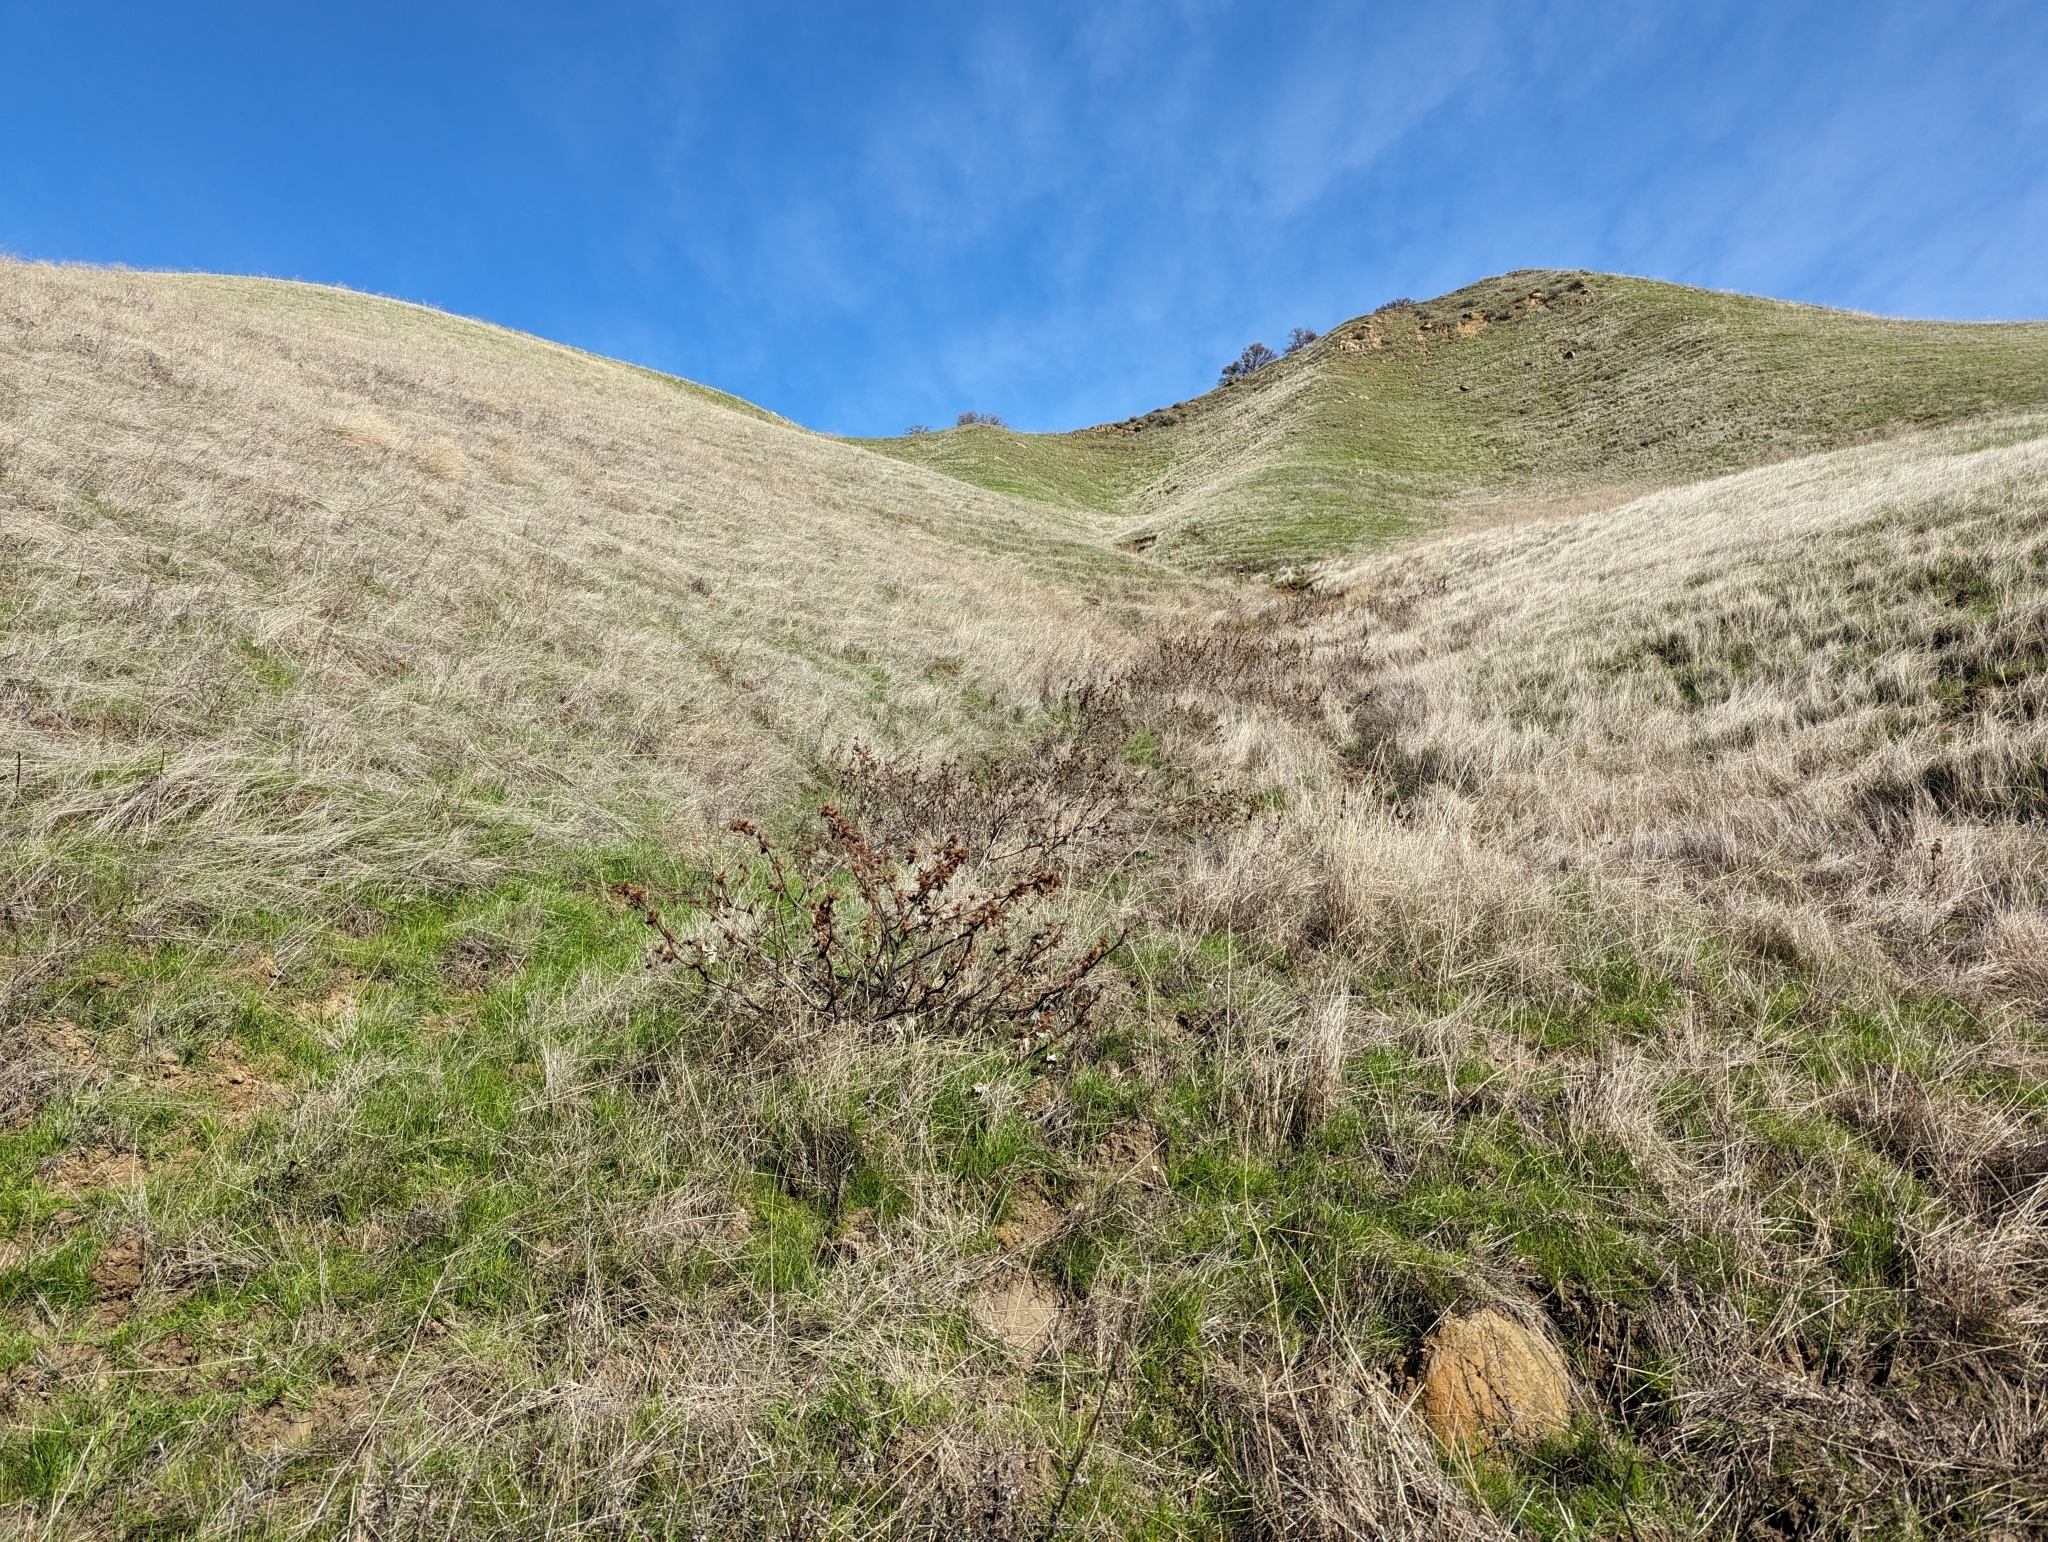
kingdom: Plantae
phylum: Tracheophyta
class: Magnoliopsida
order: Asterales
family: Asteraceae
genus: Xanthium
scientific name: Xanthium orientale
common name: Californian burr
